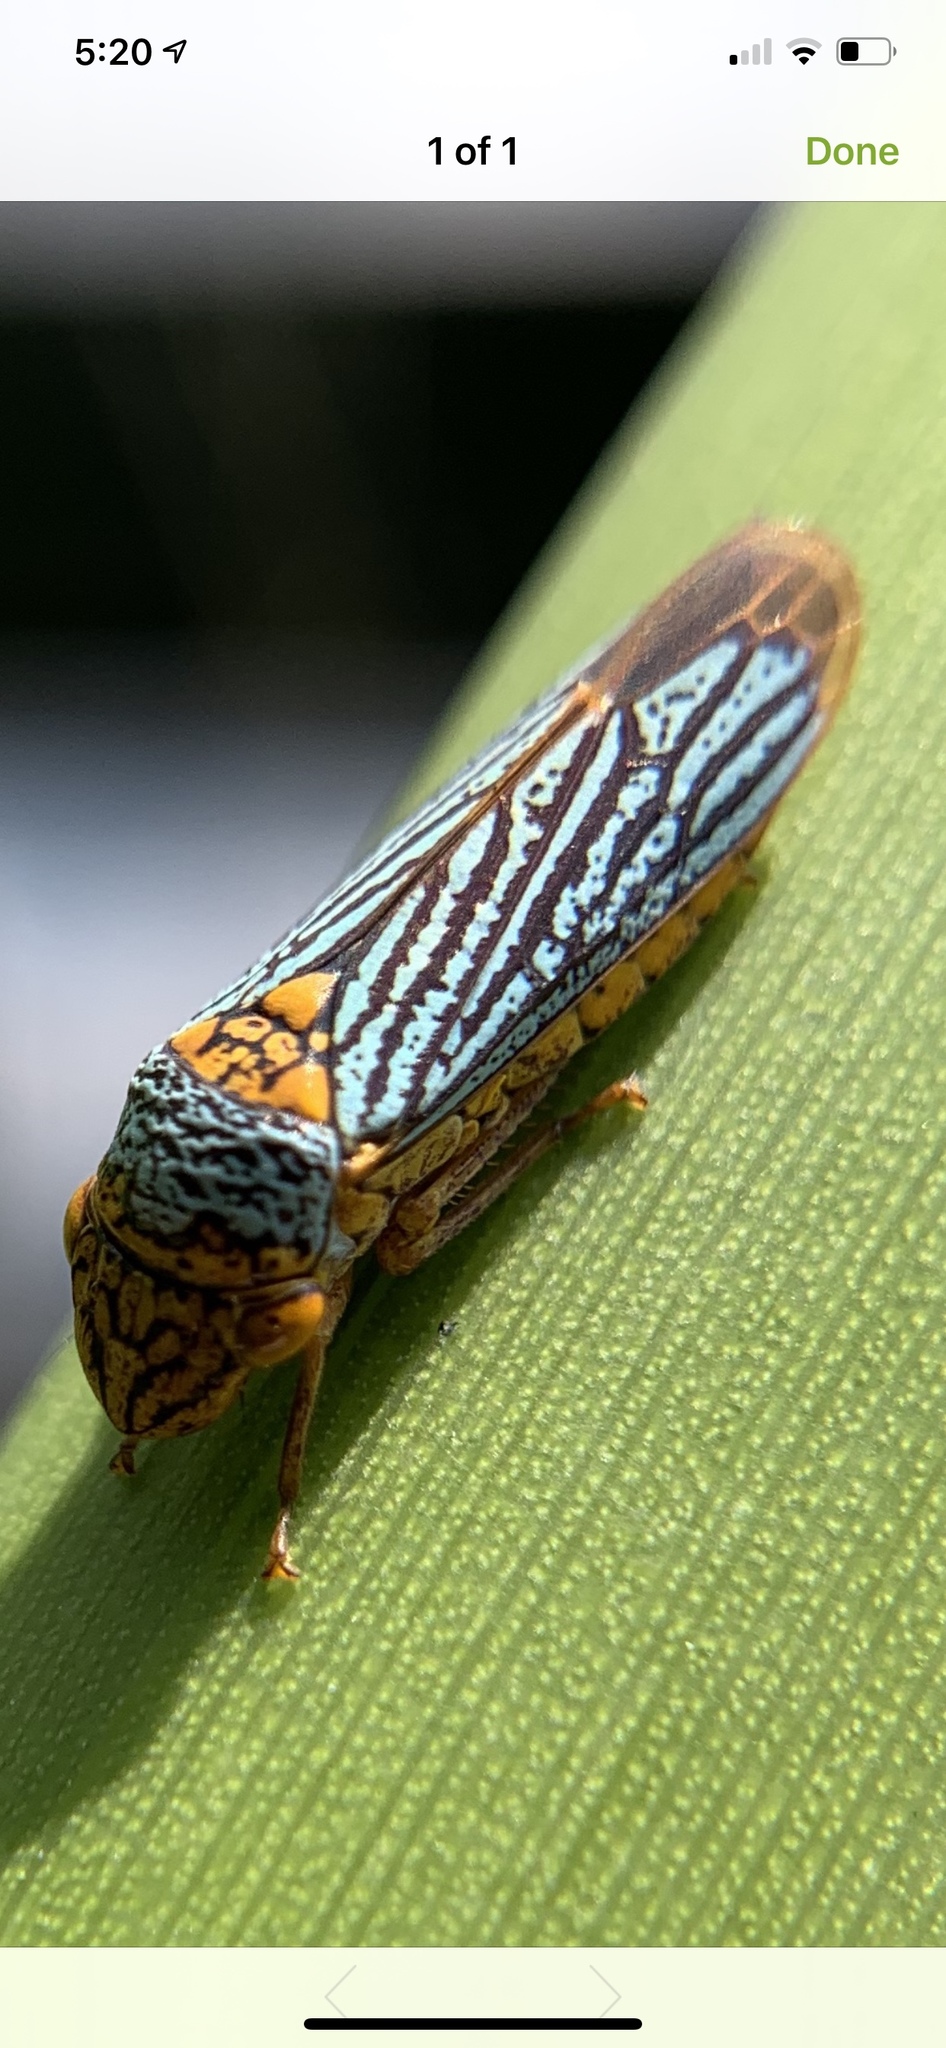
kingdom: Animalia
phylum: Arthropoda
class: Insecta
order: Hemiptera
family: Cicadellidae
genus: Oncometopia
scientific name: Oncometopia nigricans
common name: Black-winged sharpshooter
